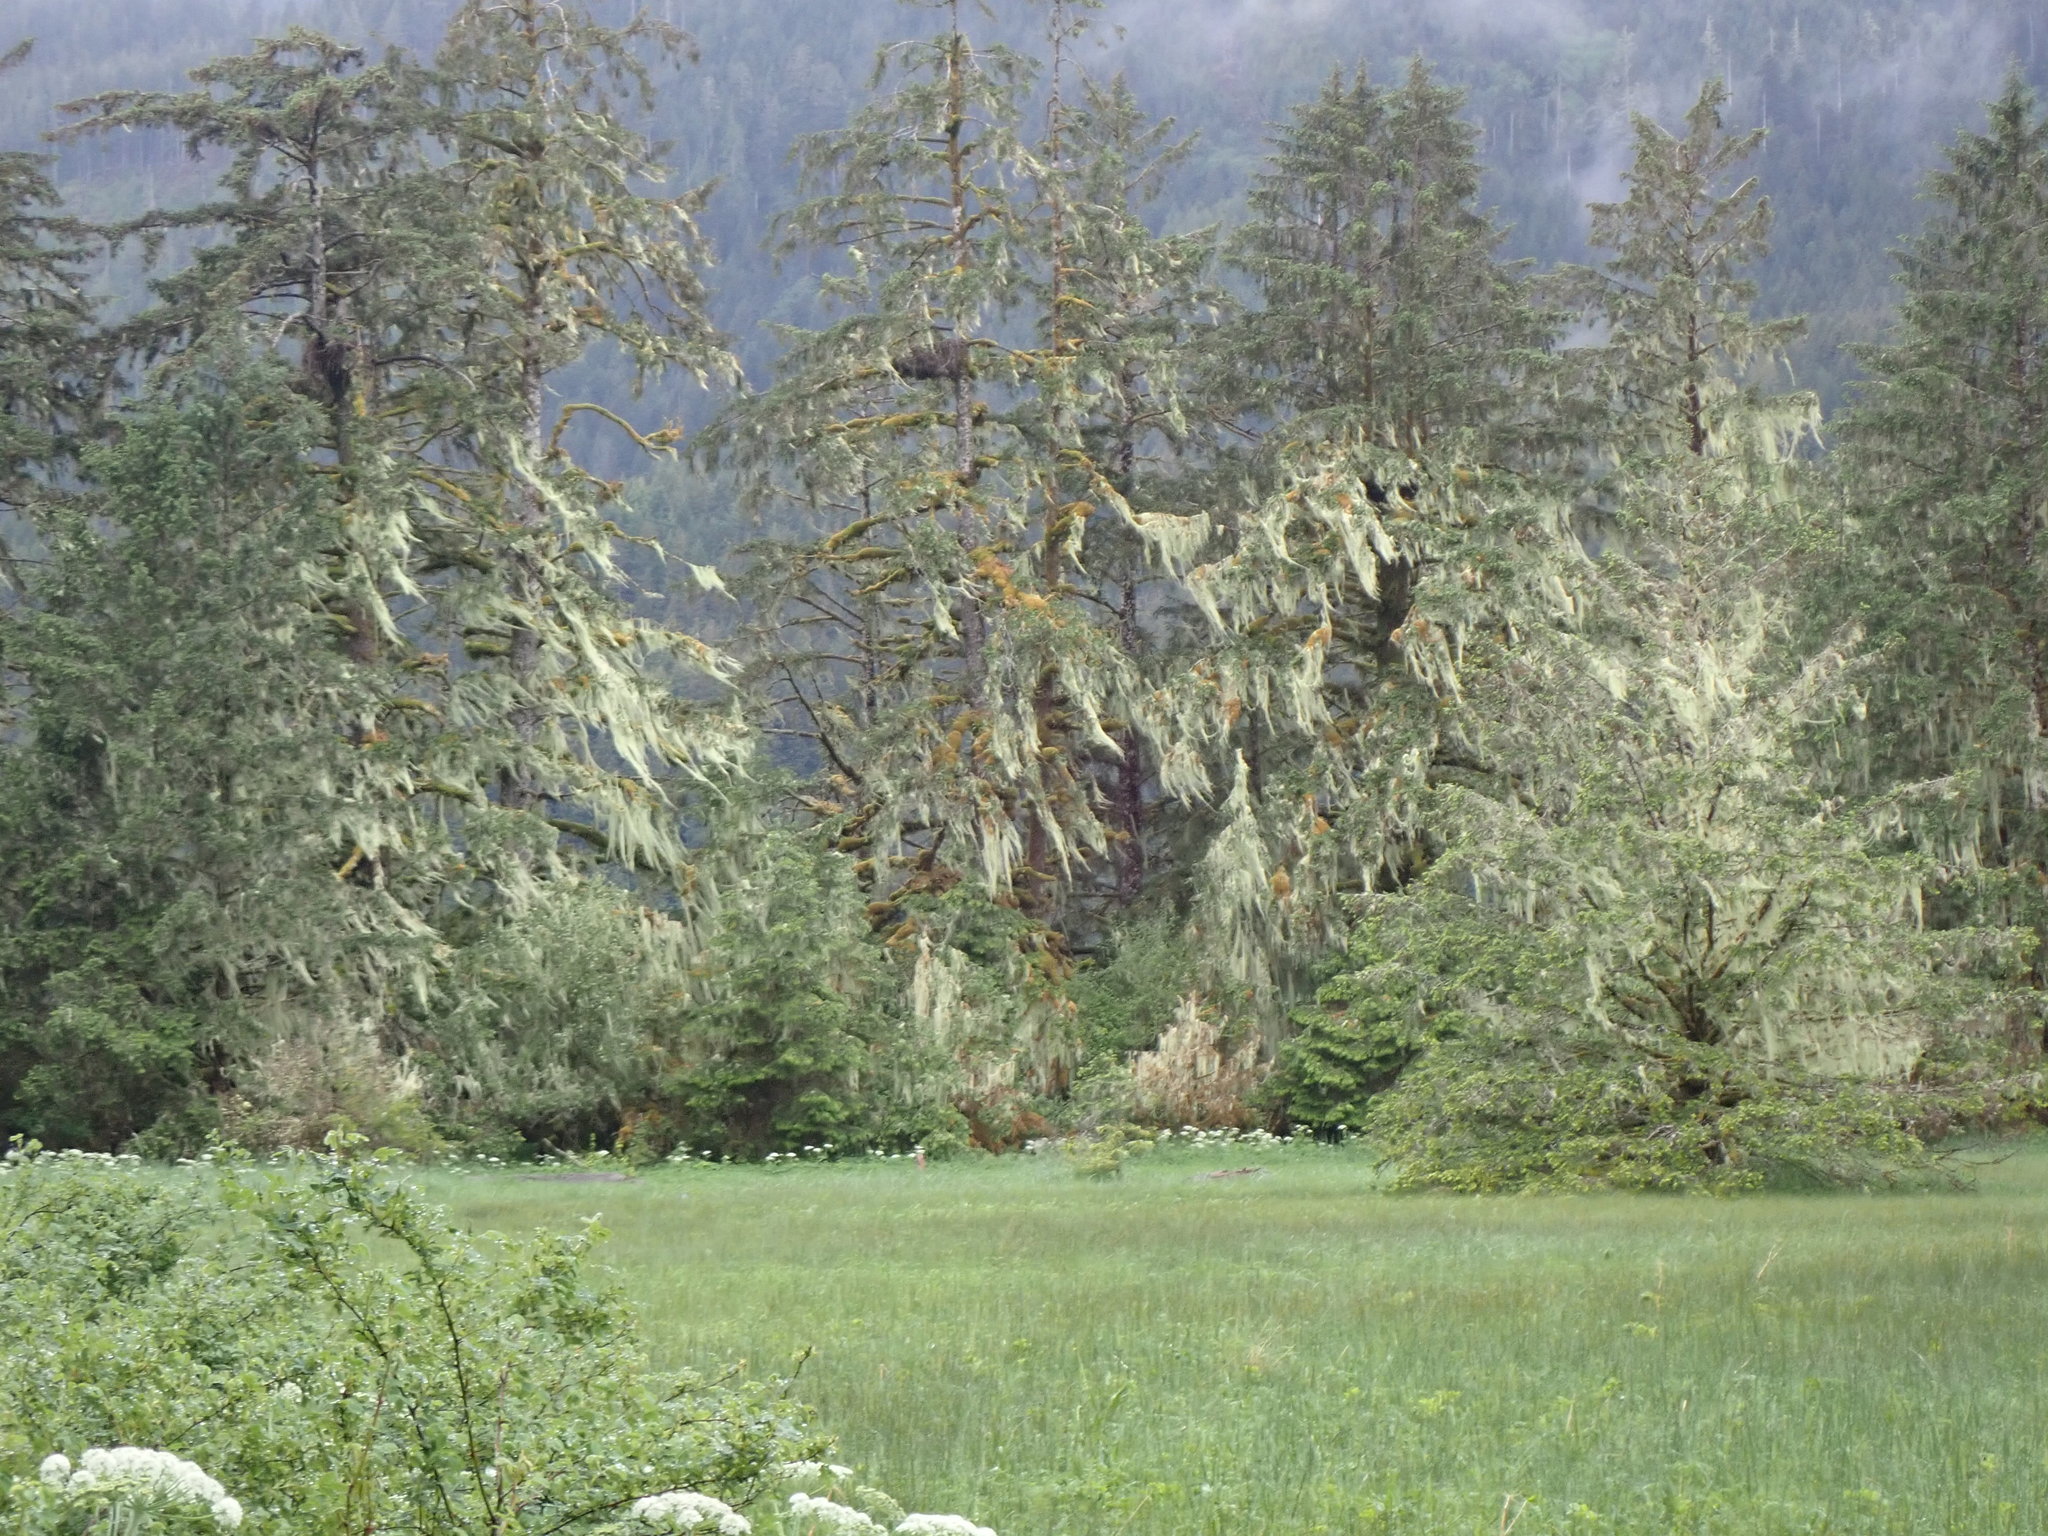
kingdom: Fungi
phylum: Ascomycota
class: Lecanoromycetes
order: Lecanorales
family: Parmeliaceae
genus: Dolichousnea
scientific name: Dolichousnea longissima
